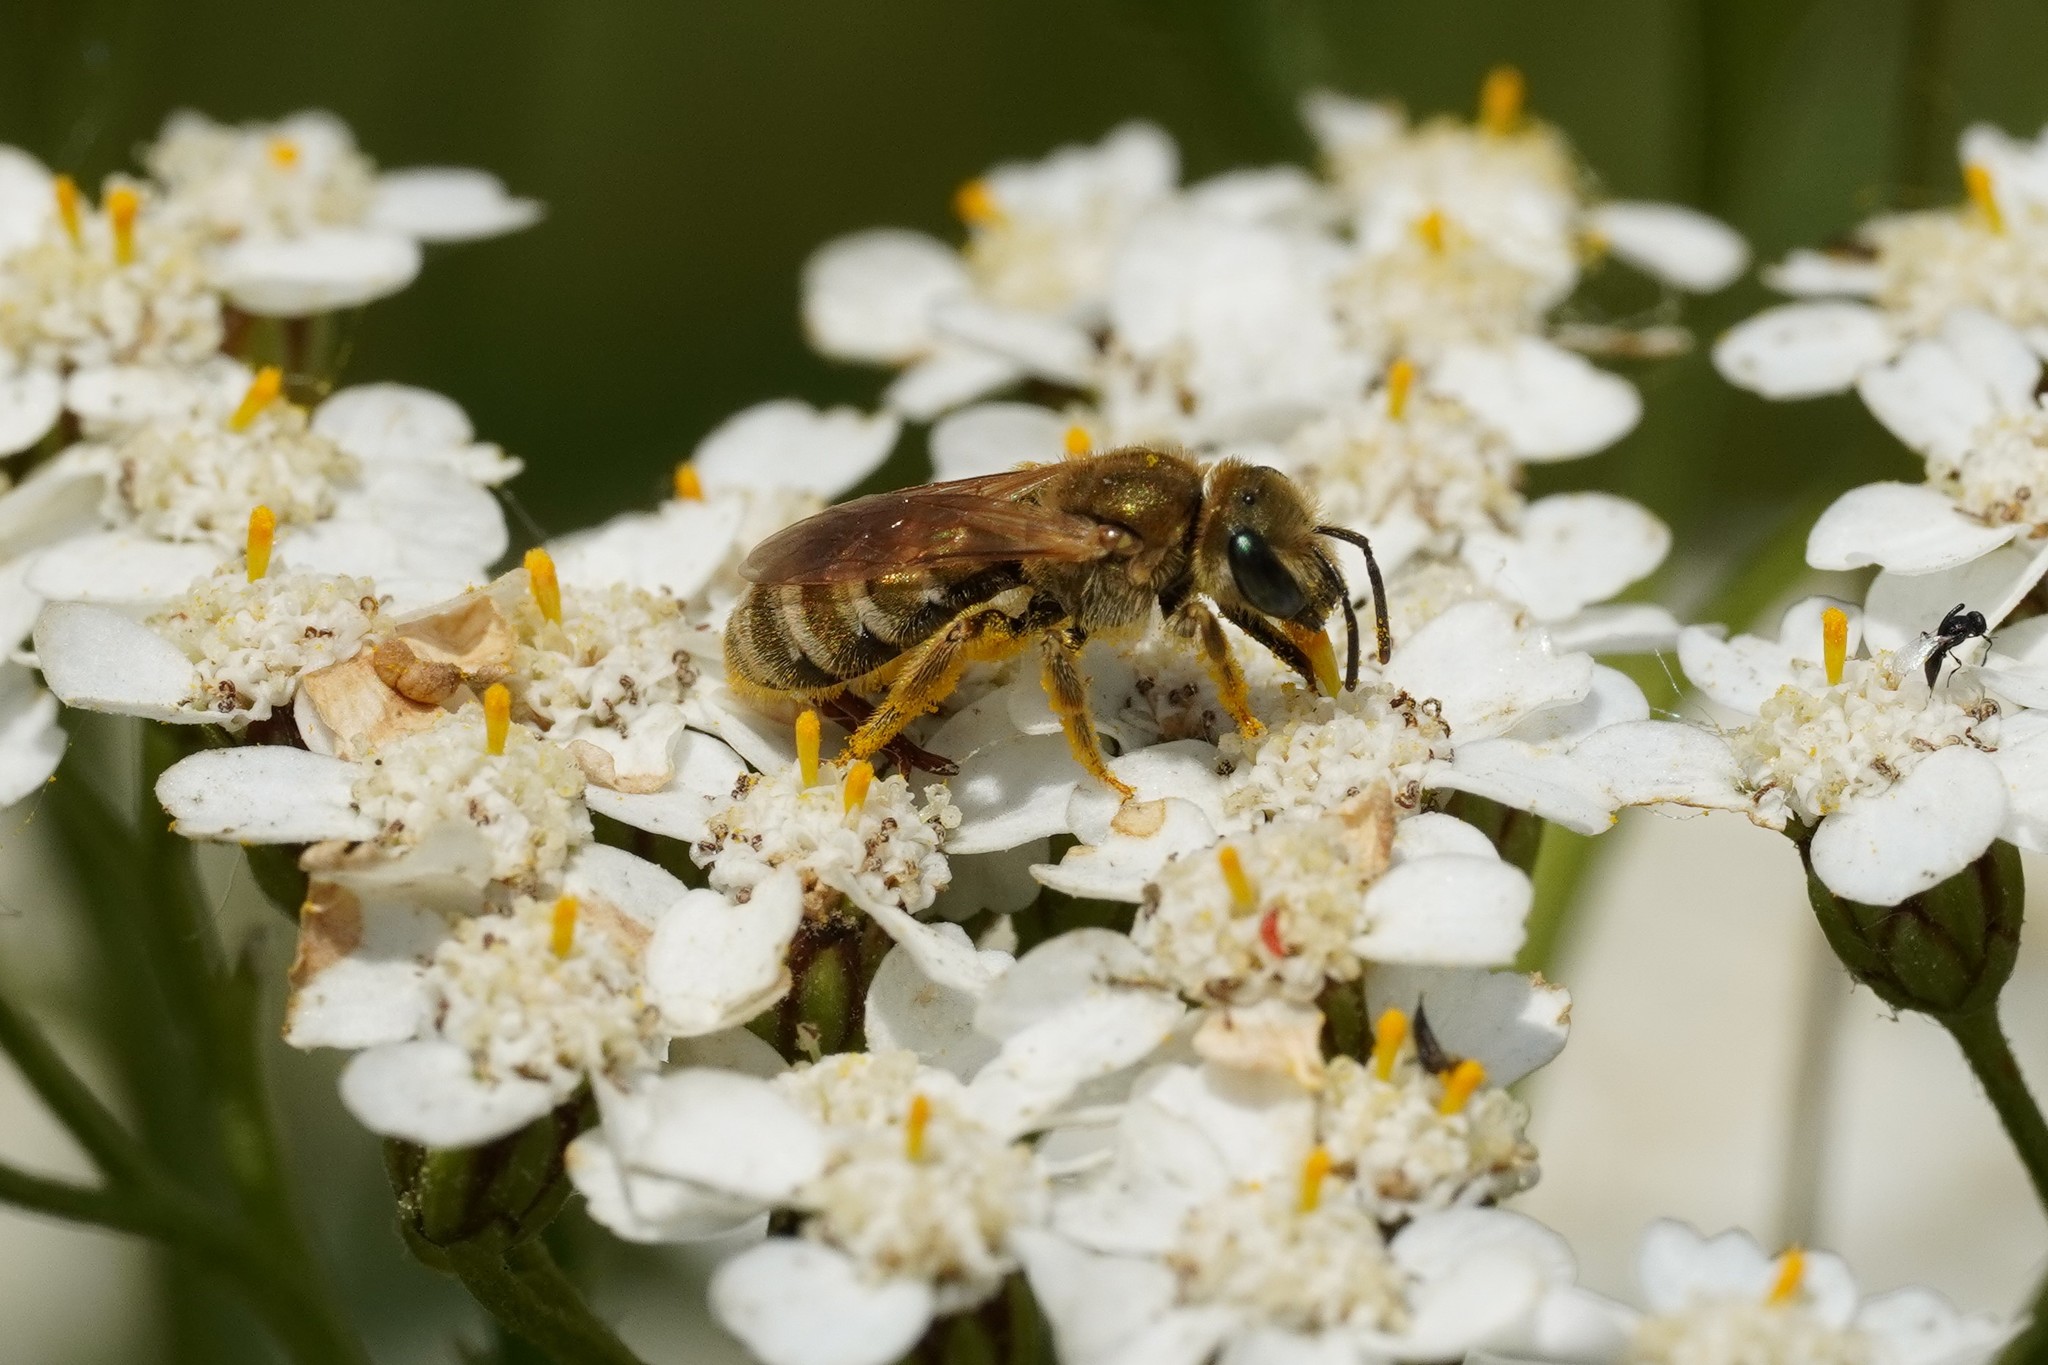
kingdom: Animalia
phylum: Arthropoda
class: Insecta
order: Hymenoptera
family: Halictidae
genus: Halictus
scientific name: Halictus subauratus
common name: Golden furrow bee
